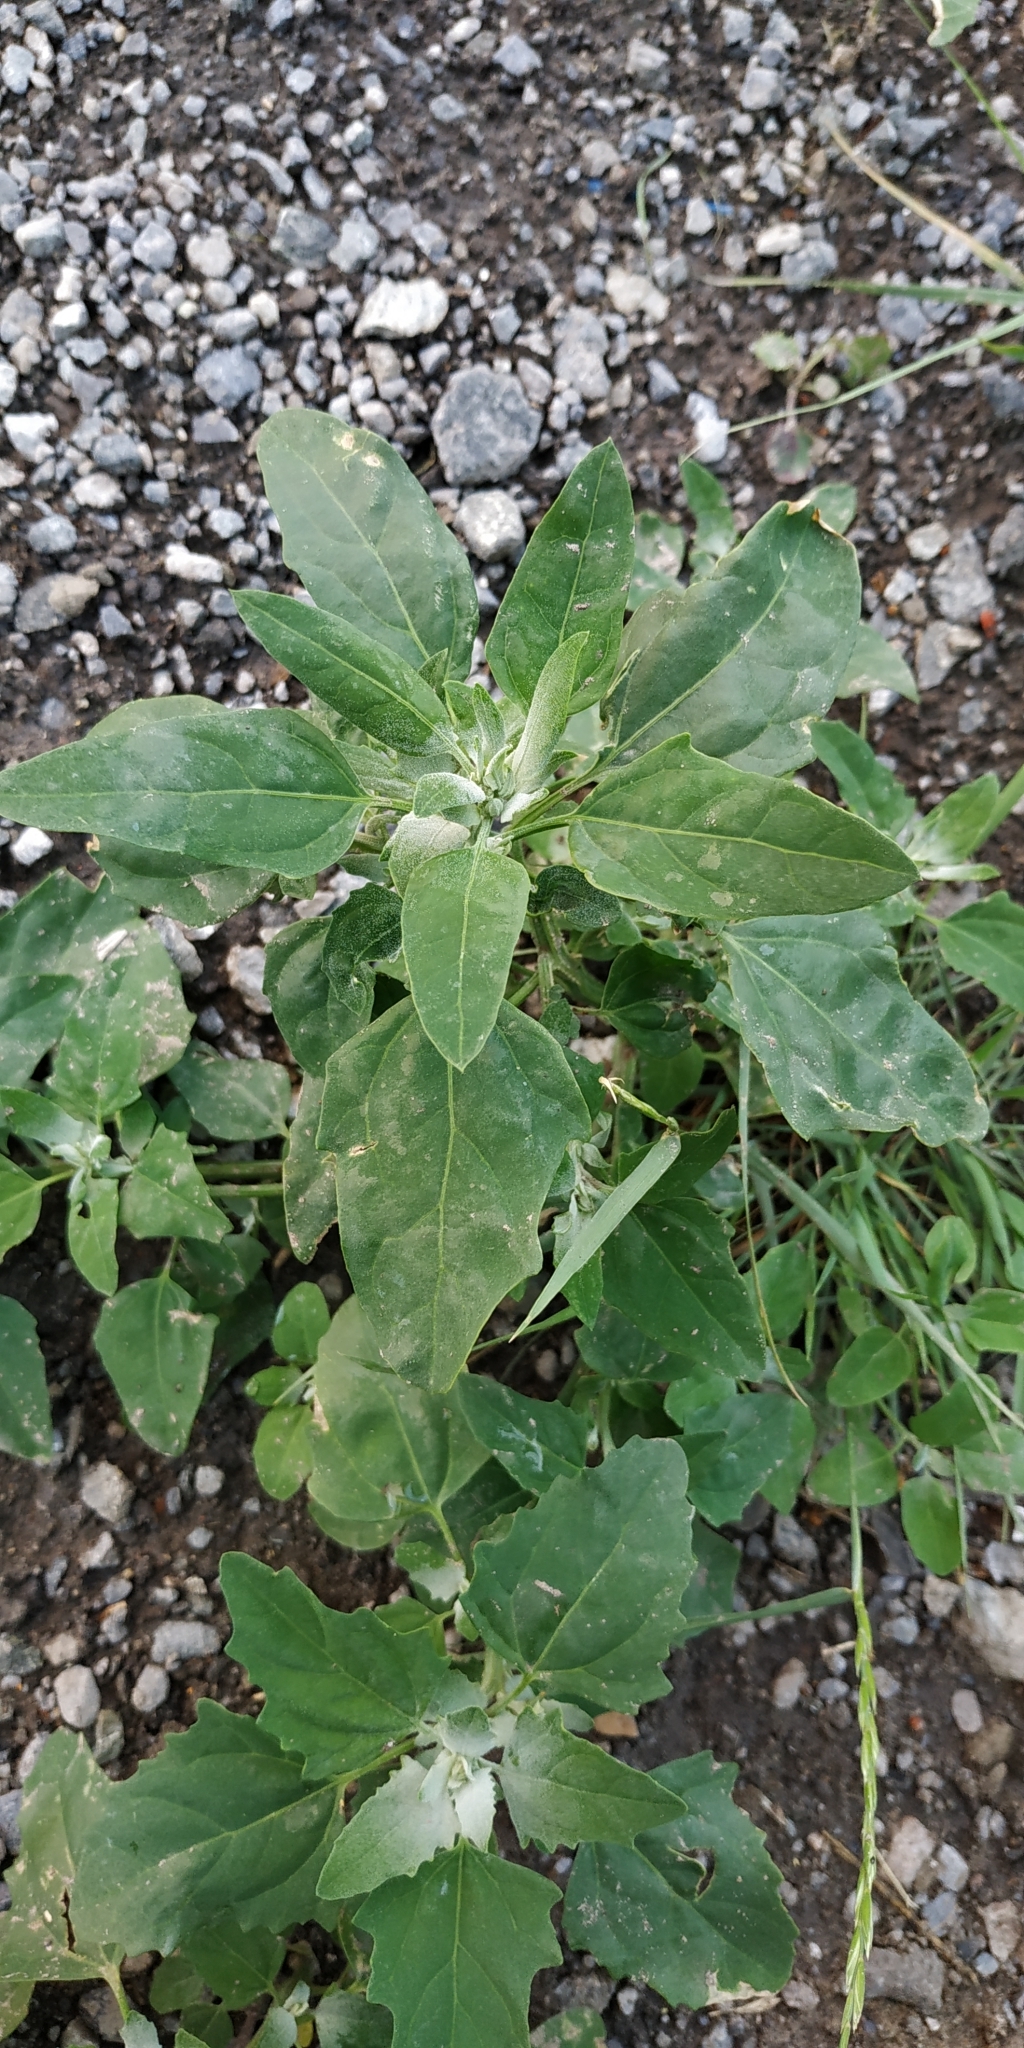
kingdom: Plantae
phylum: Tracheophyta
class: Magnoliopsida
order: Caryophyllales
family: Amaranthaceae
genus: Chenopodium
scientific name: Chenopodium suecicum
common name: Swedish goosefoot
